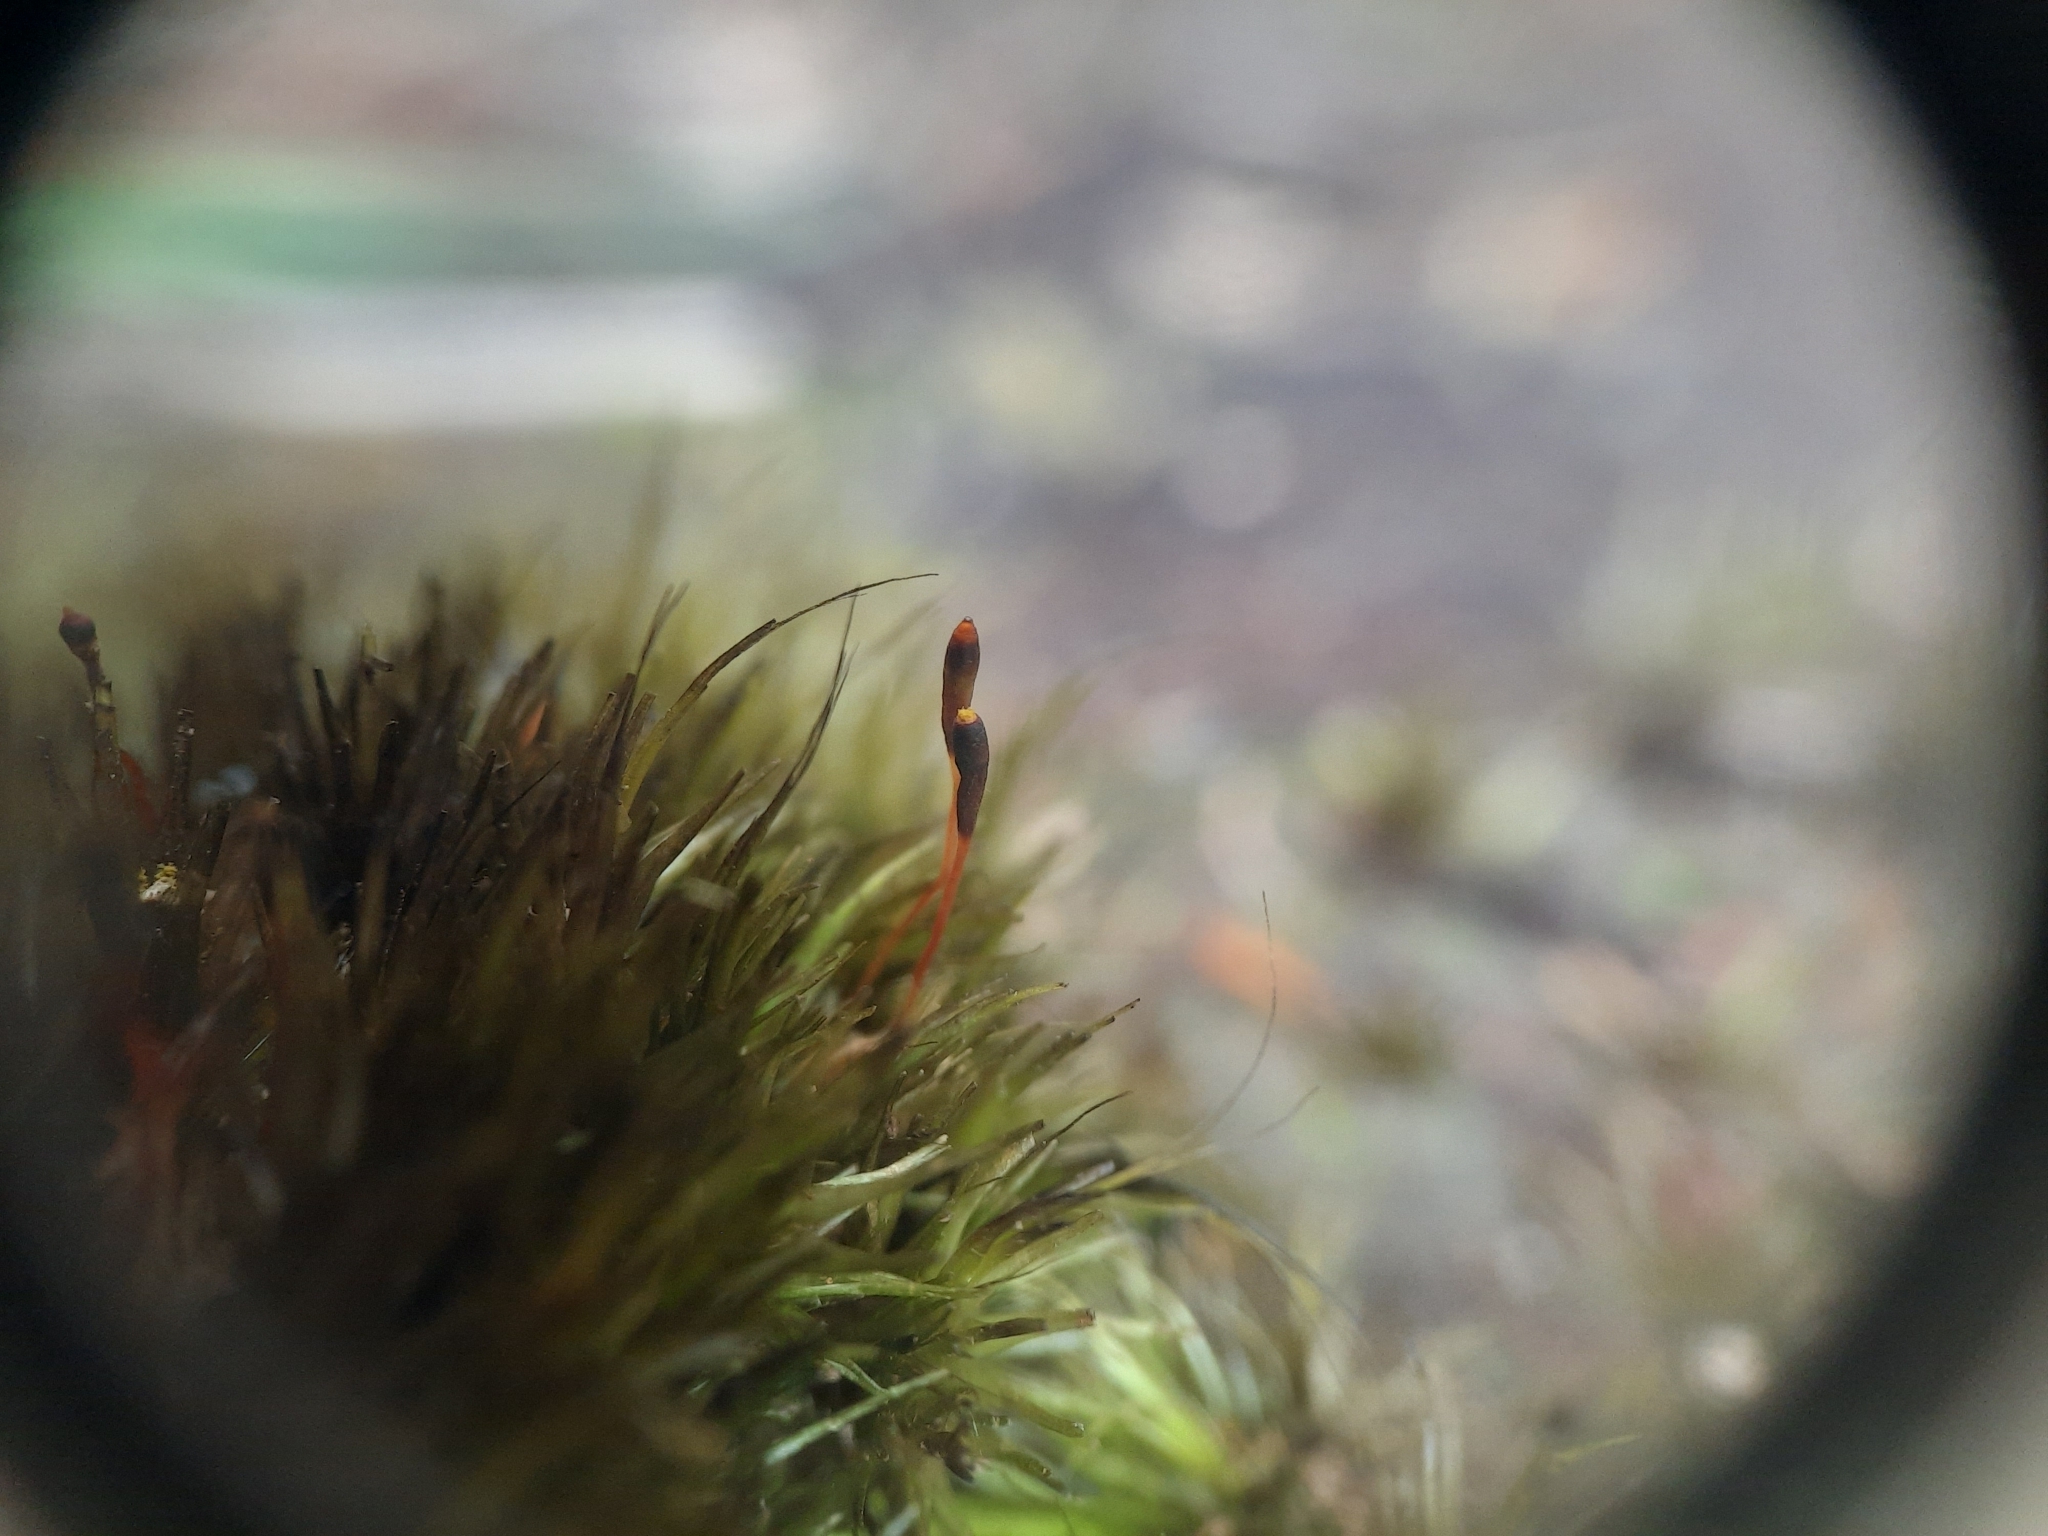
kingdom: Plantae
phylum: Bryophyta
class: Bryopsida
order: Dicranales
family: Leucobryaceae
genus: Campylopus
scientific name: Campylopus clavatus
